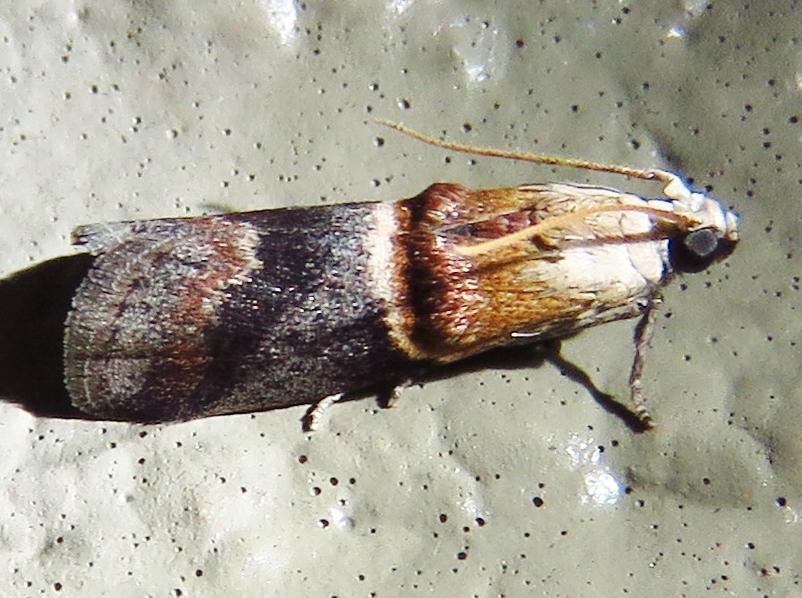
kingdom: Animalia
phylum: Arthropoda
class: Insecta
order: Lepidoptera
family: Pyralidae
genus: Acrobasis
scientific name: Acrobasis demotella
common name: Walnut shoot moth
